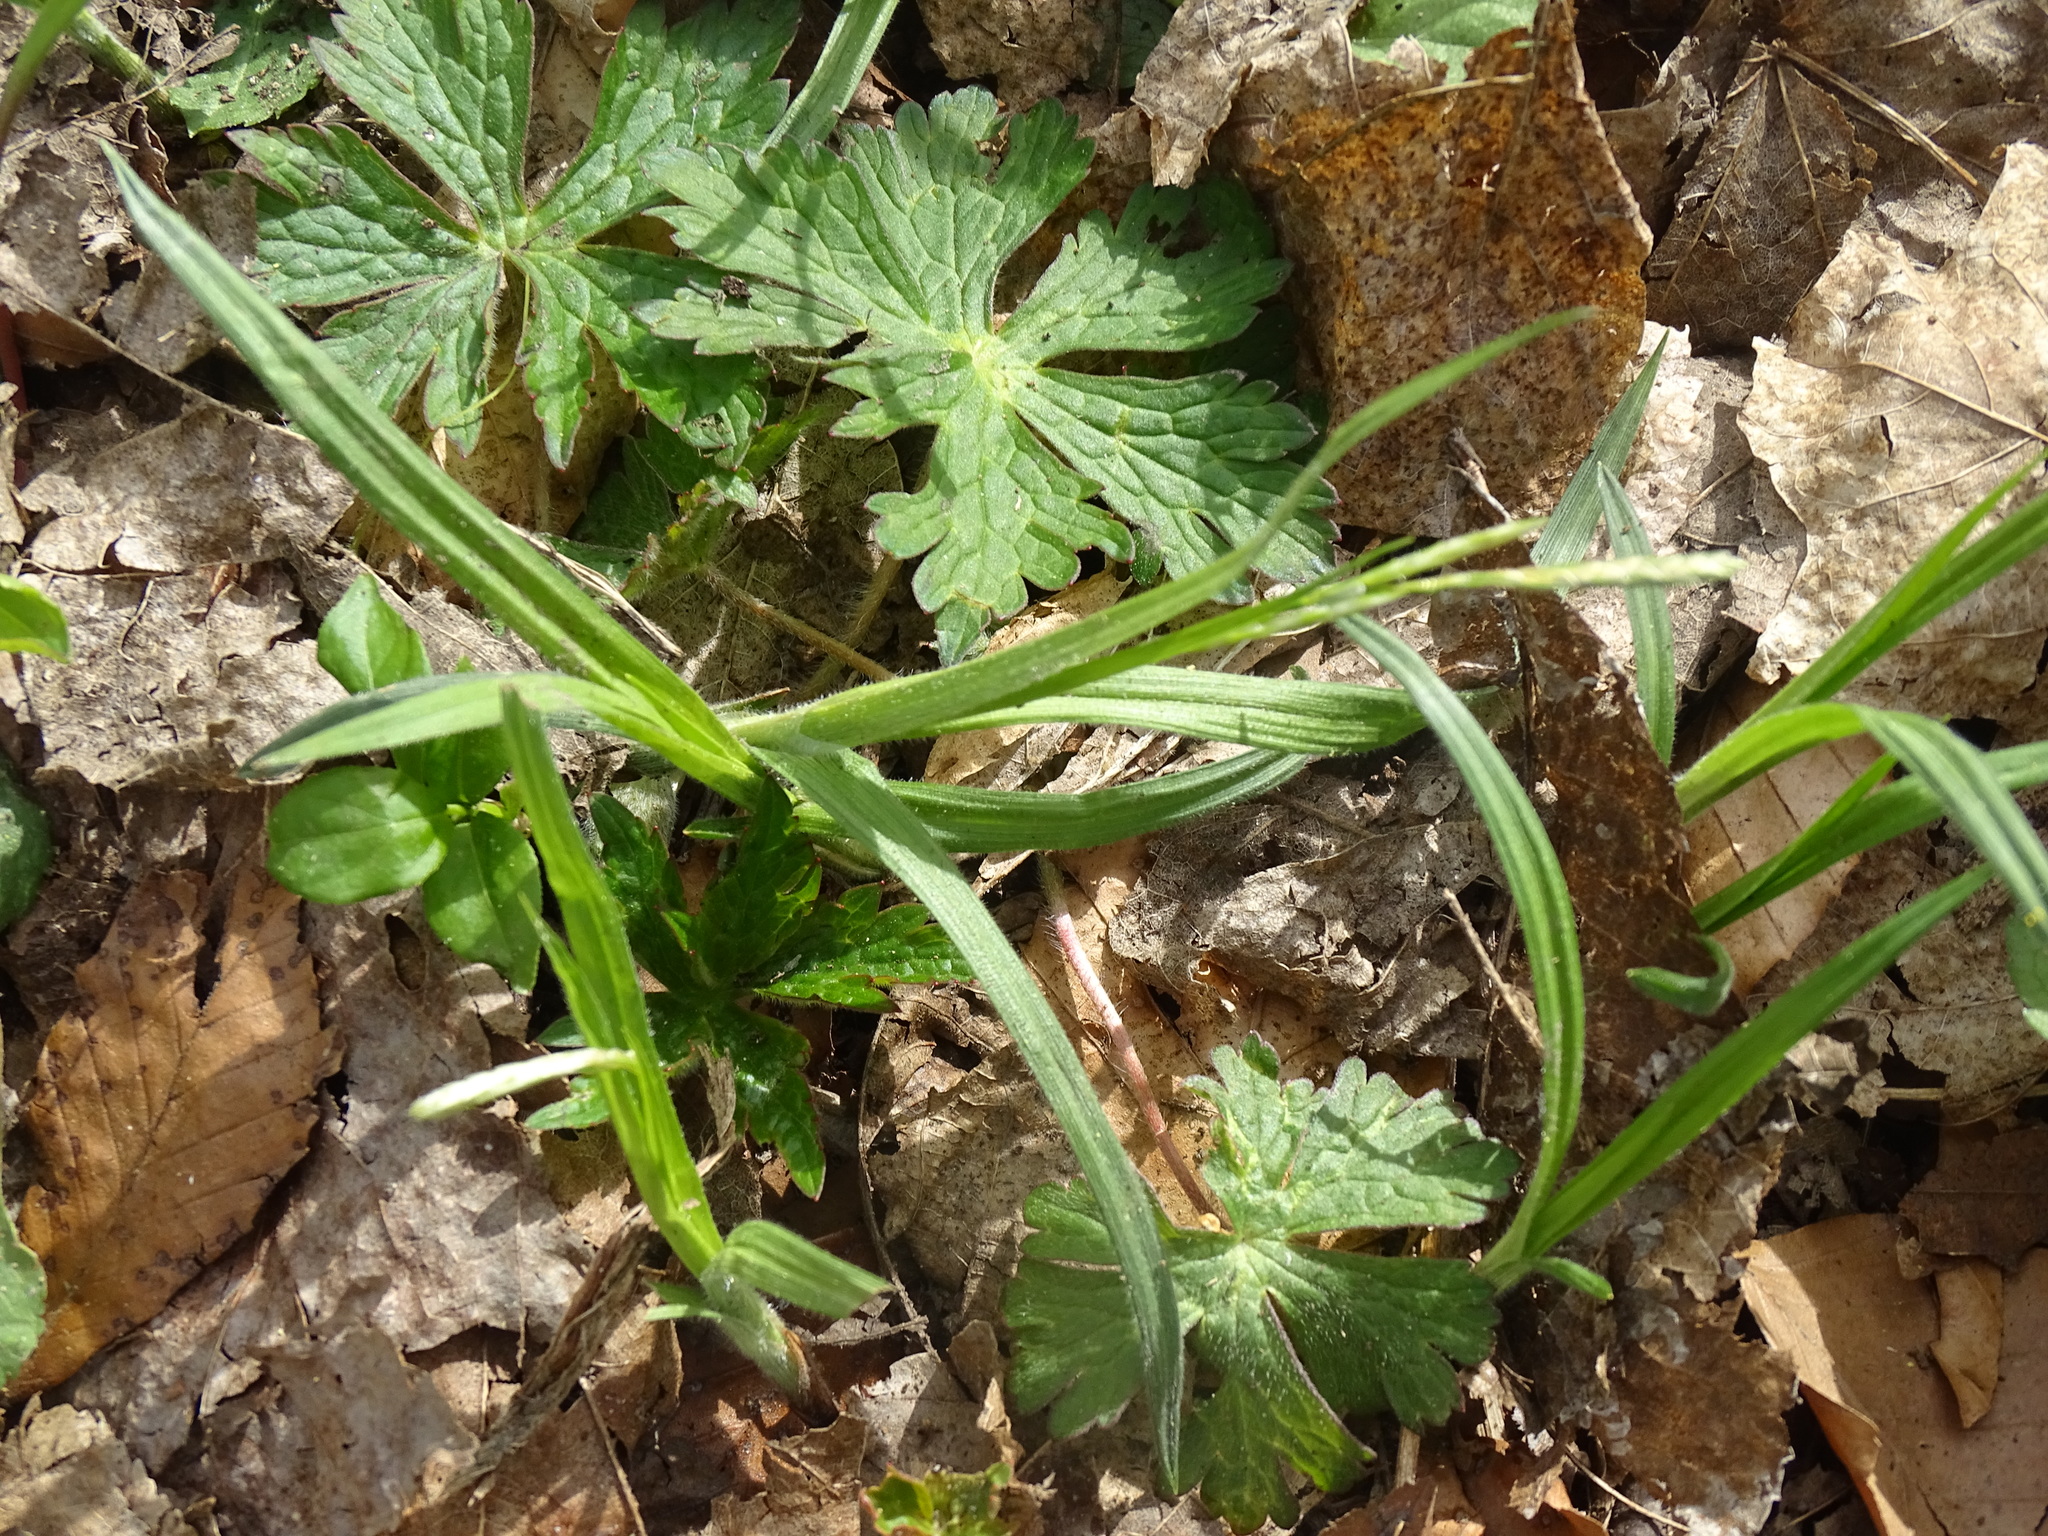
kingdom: Plantae
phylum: Tracheophyta
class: Liliopsida
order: Poales
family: Cyperaceae
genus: Carex
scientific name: Carex hirtifolia
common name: Hairy sedge
